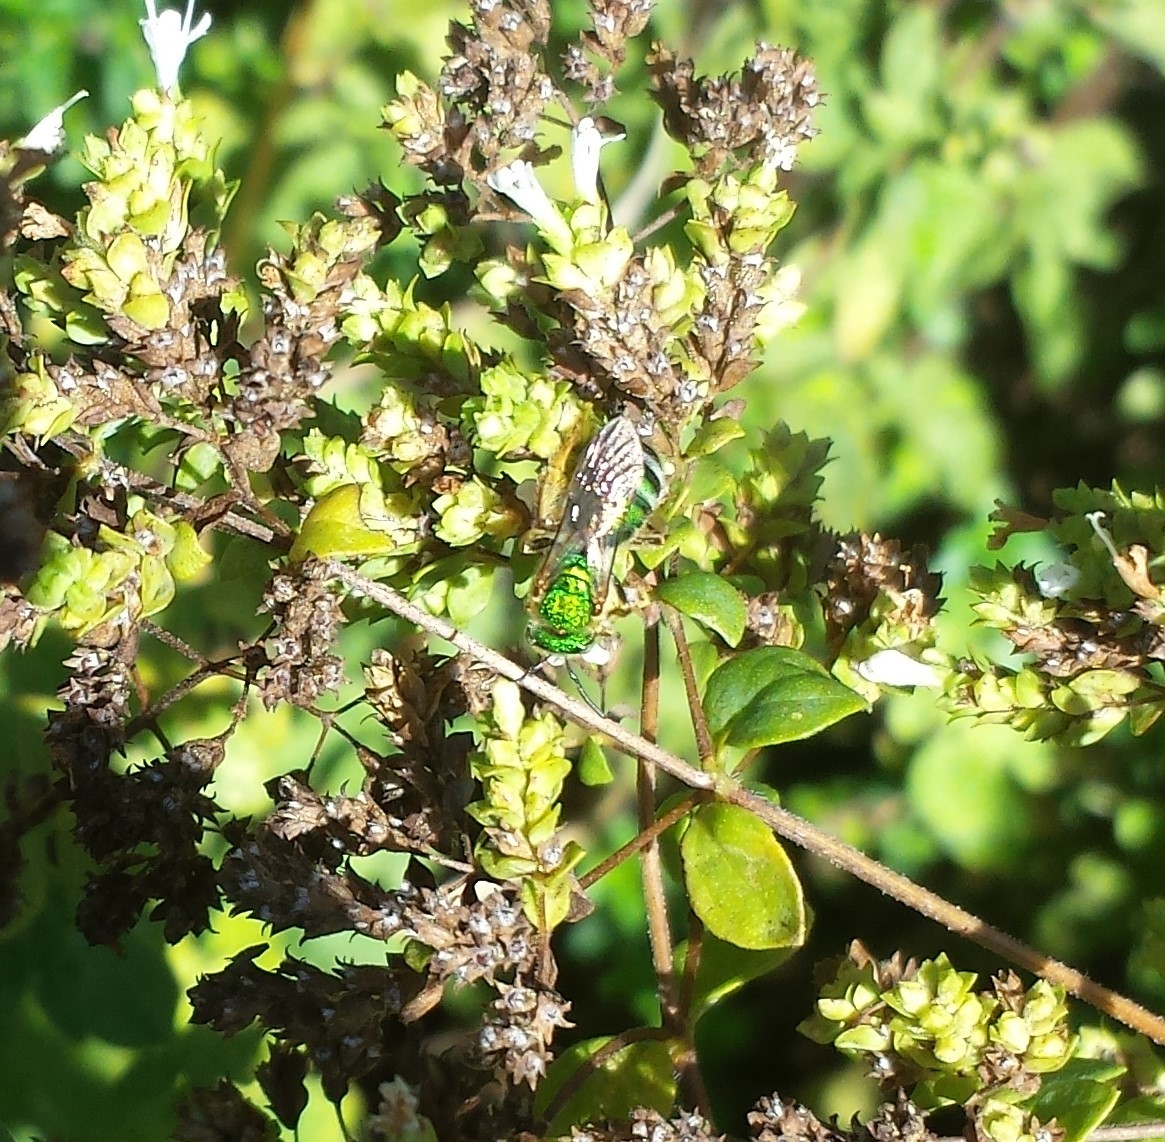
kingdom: Animalia
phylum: Arthropoda
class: Insecta
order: Hymenoptera
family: Halictidae
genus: Agapostemon
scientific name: Agapostemon sericeus
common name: Silky striped sweat bee
